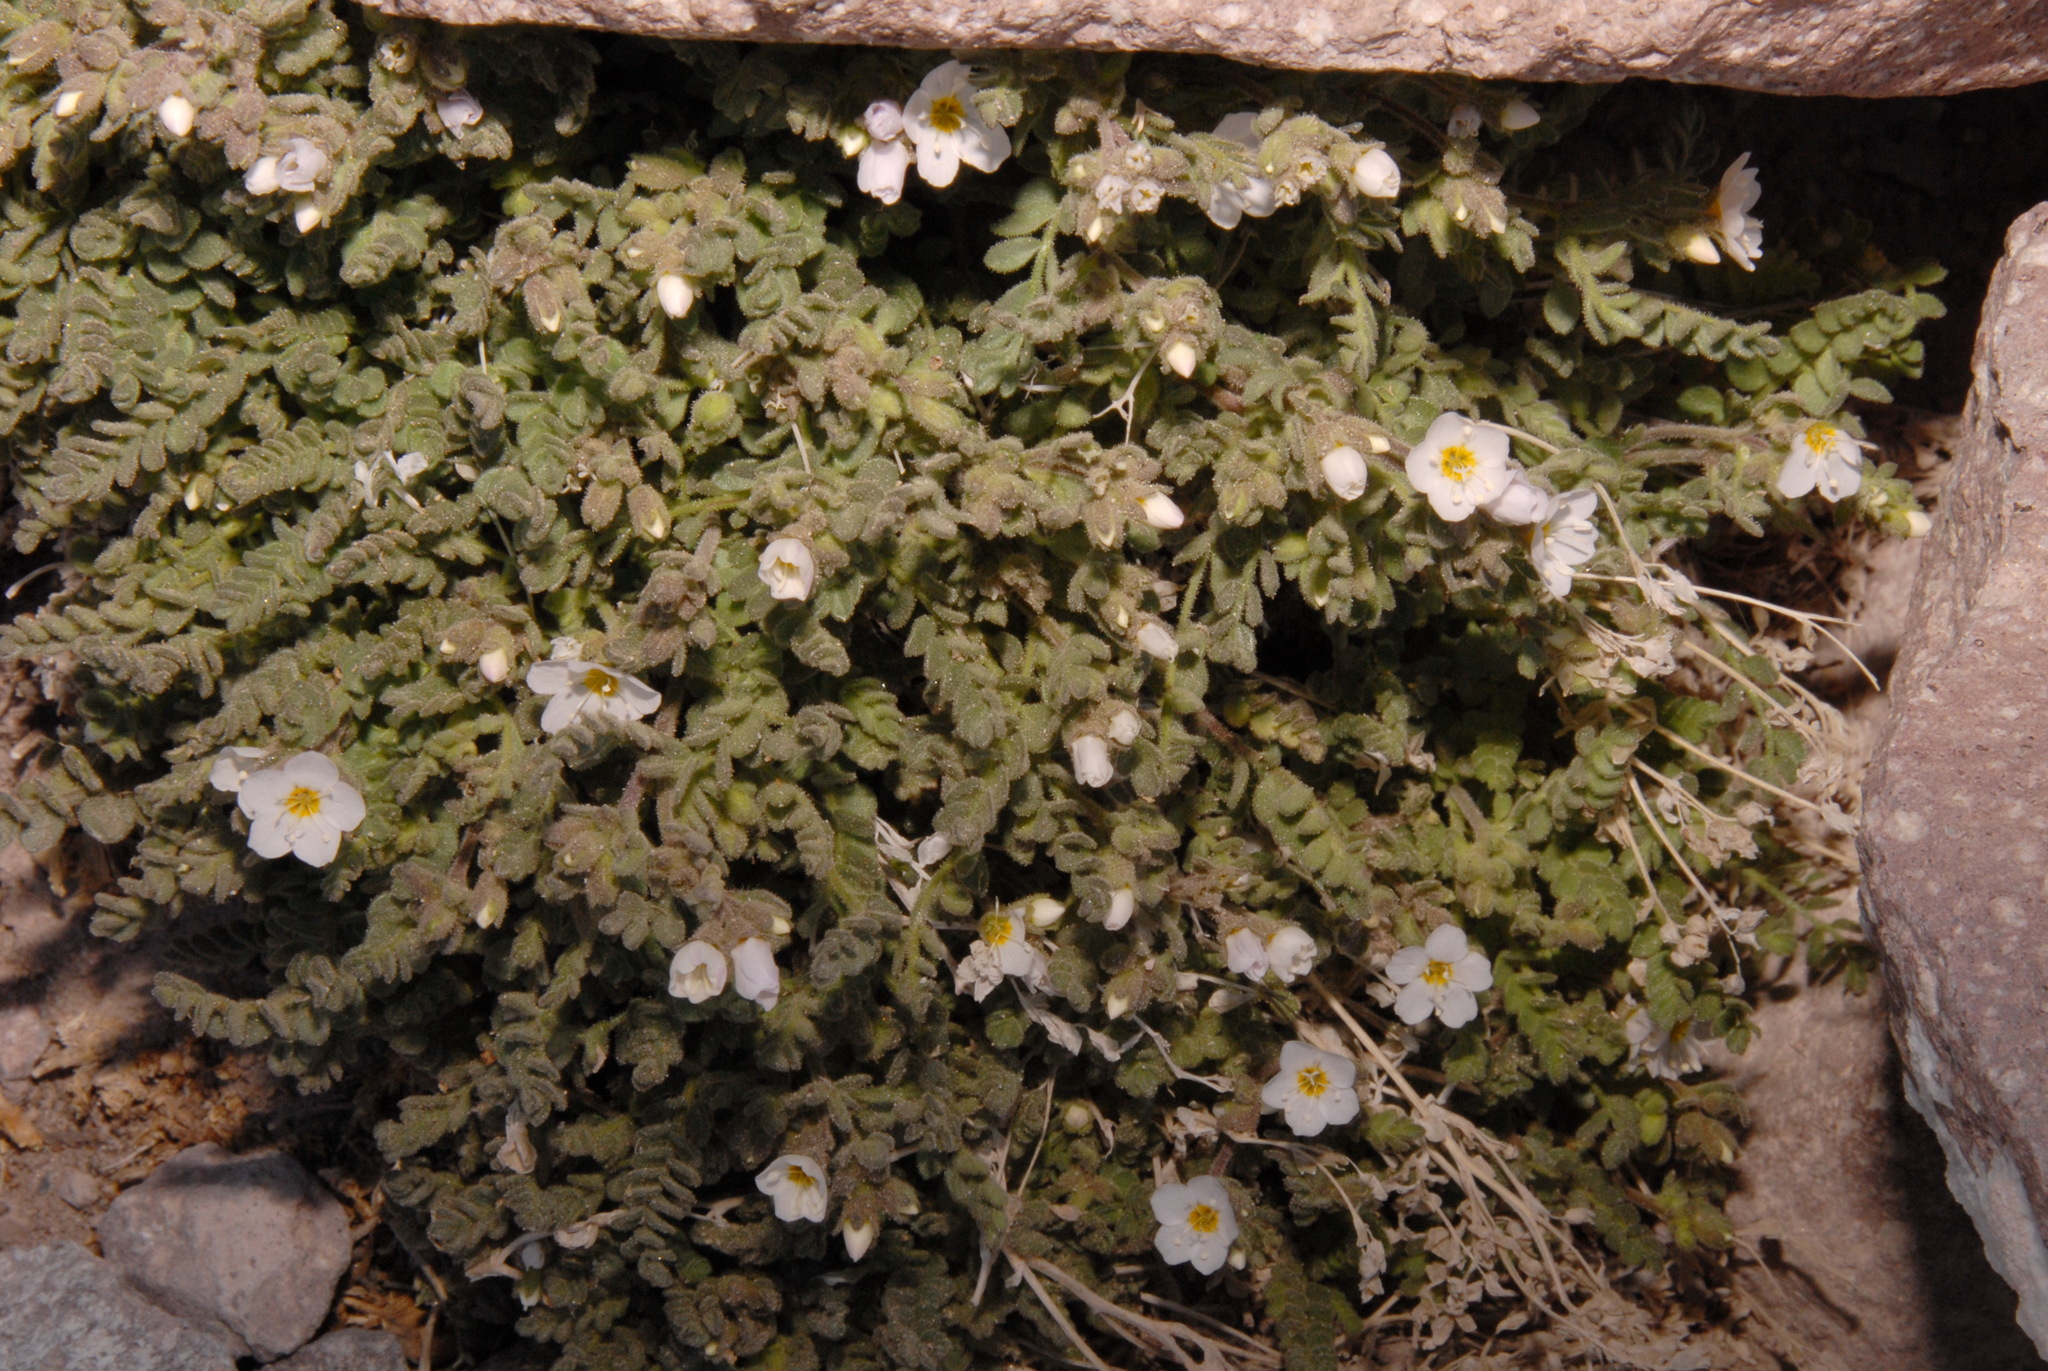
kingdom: Plantae
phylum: Tracheophyta
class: Magnoliopsida
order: Ericales
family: Polemoniaceae
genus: Polemonium
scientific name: Polemonium pulcherrimum
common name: Short jacob's-ladder
